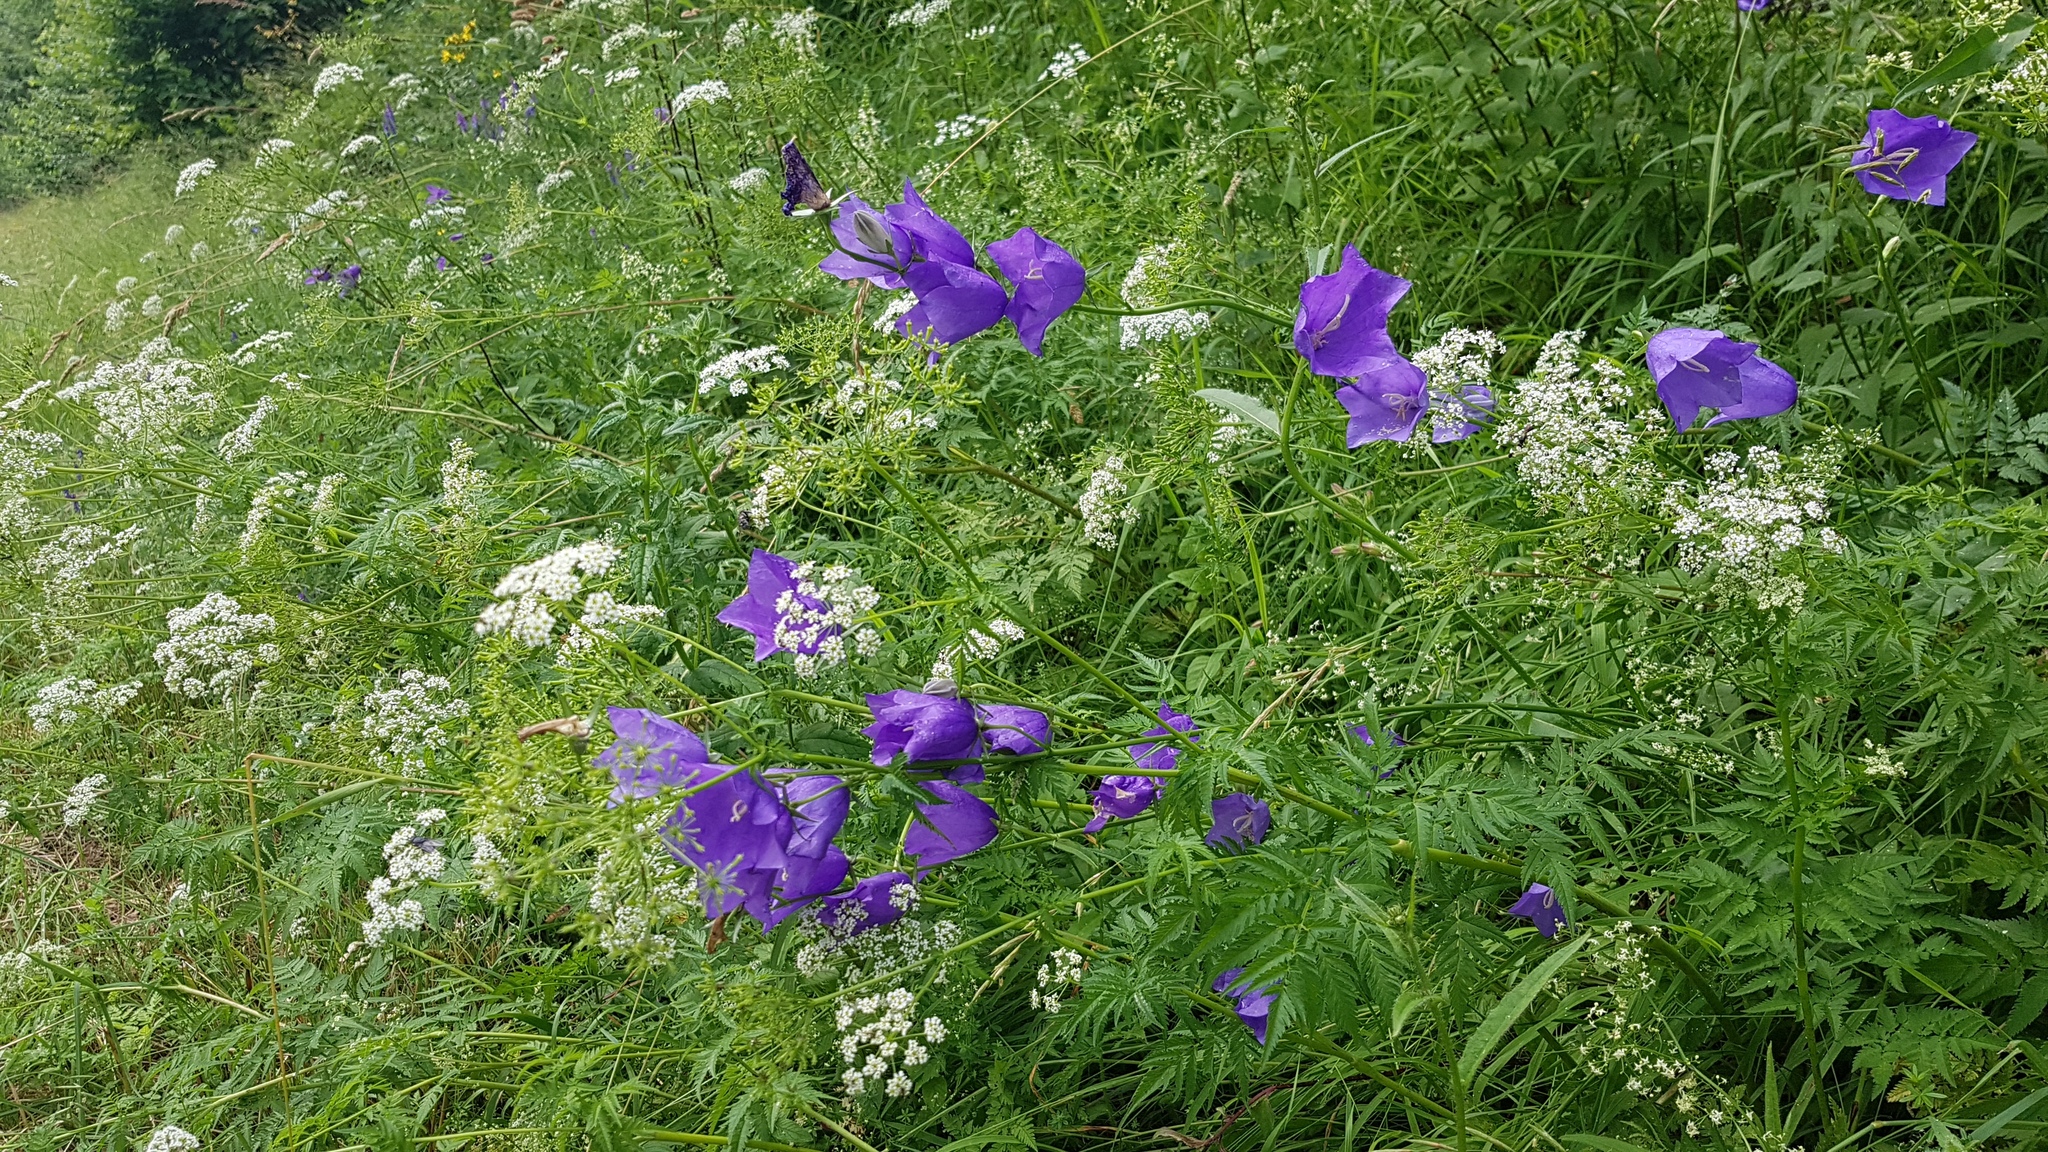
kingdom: Plantae
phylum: Tracheophyta
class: Magnoliopsida
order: Asterales
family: Campanulaceae
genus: Campanula
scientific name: Campanula persicifolia
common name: Peach-leaved bellflower
